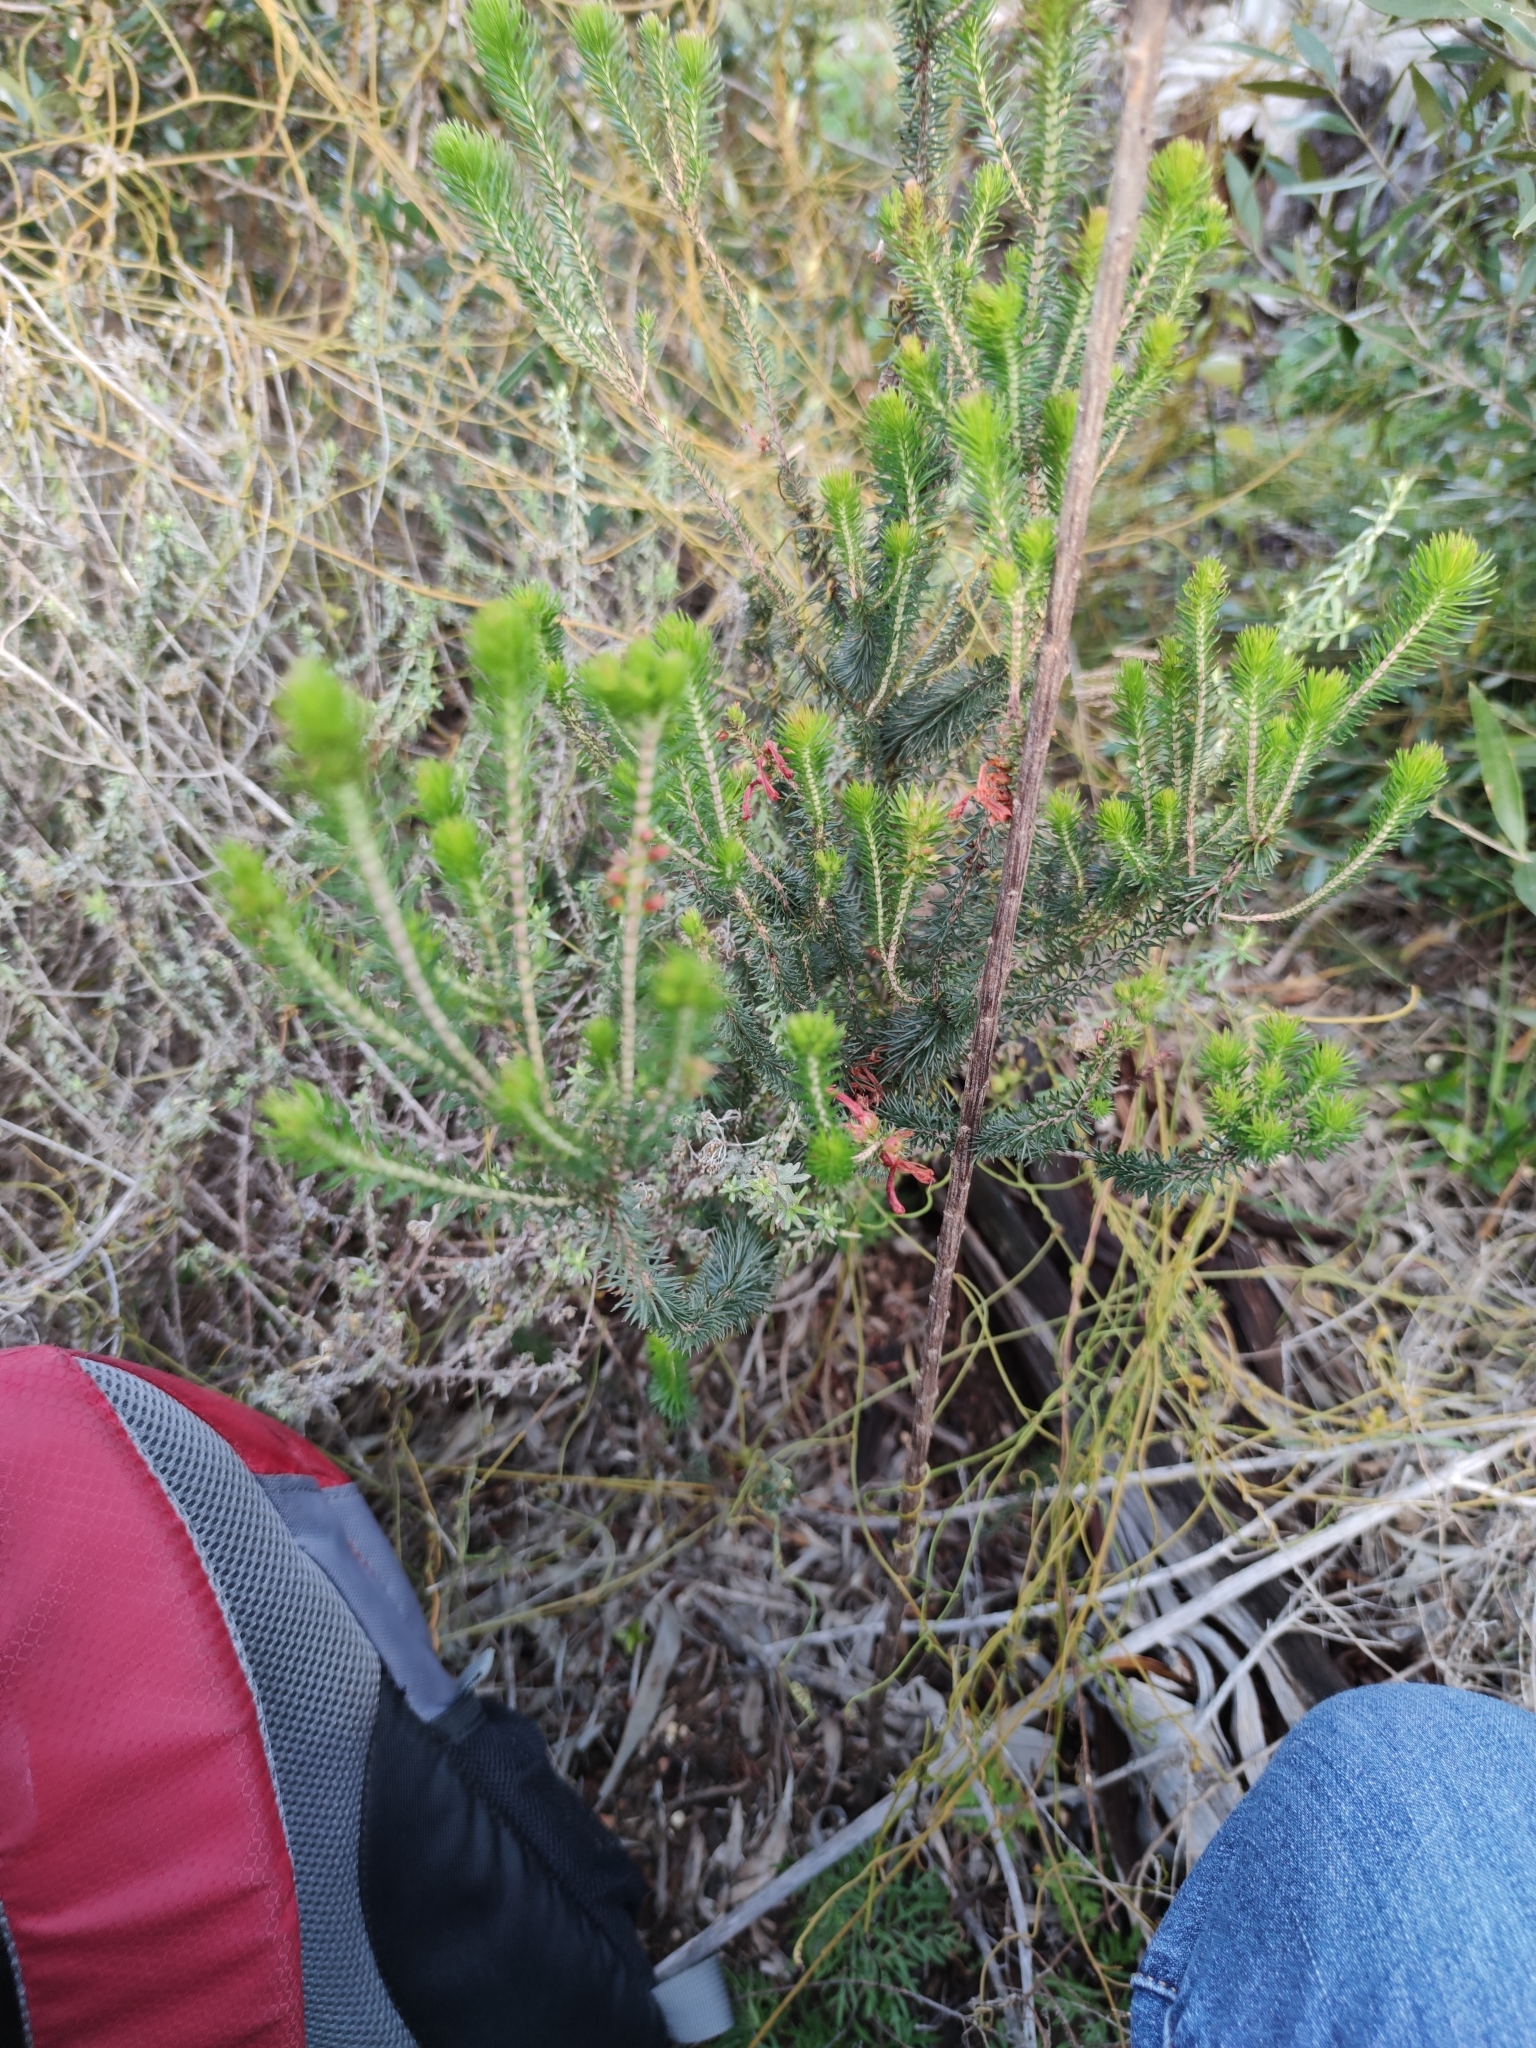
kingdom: Plantae
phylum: Tracheophyta
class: Magnoliopsida
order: Ericales
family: Ericaceae
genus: Erica
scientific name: Erica abietina
